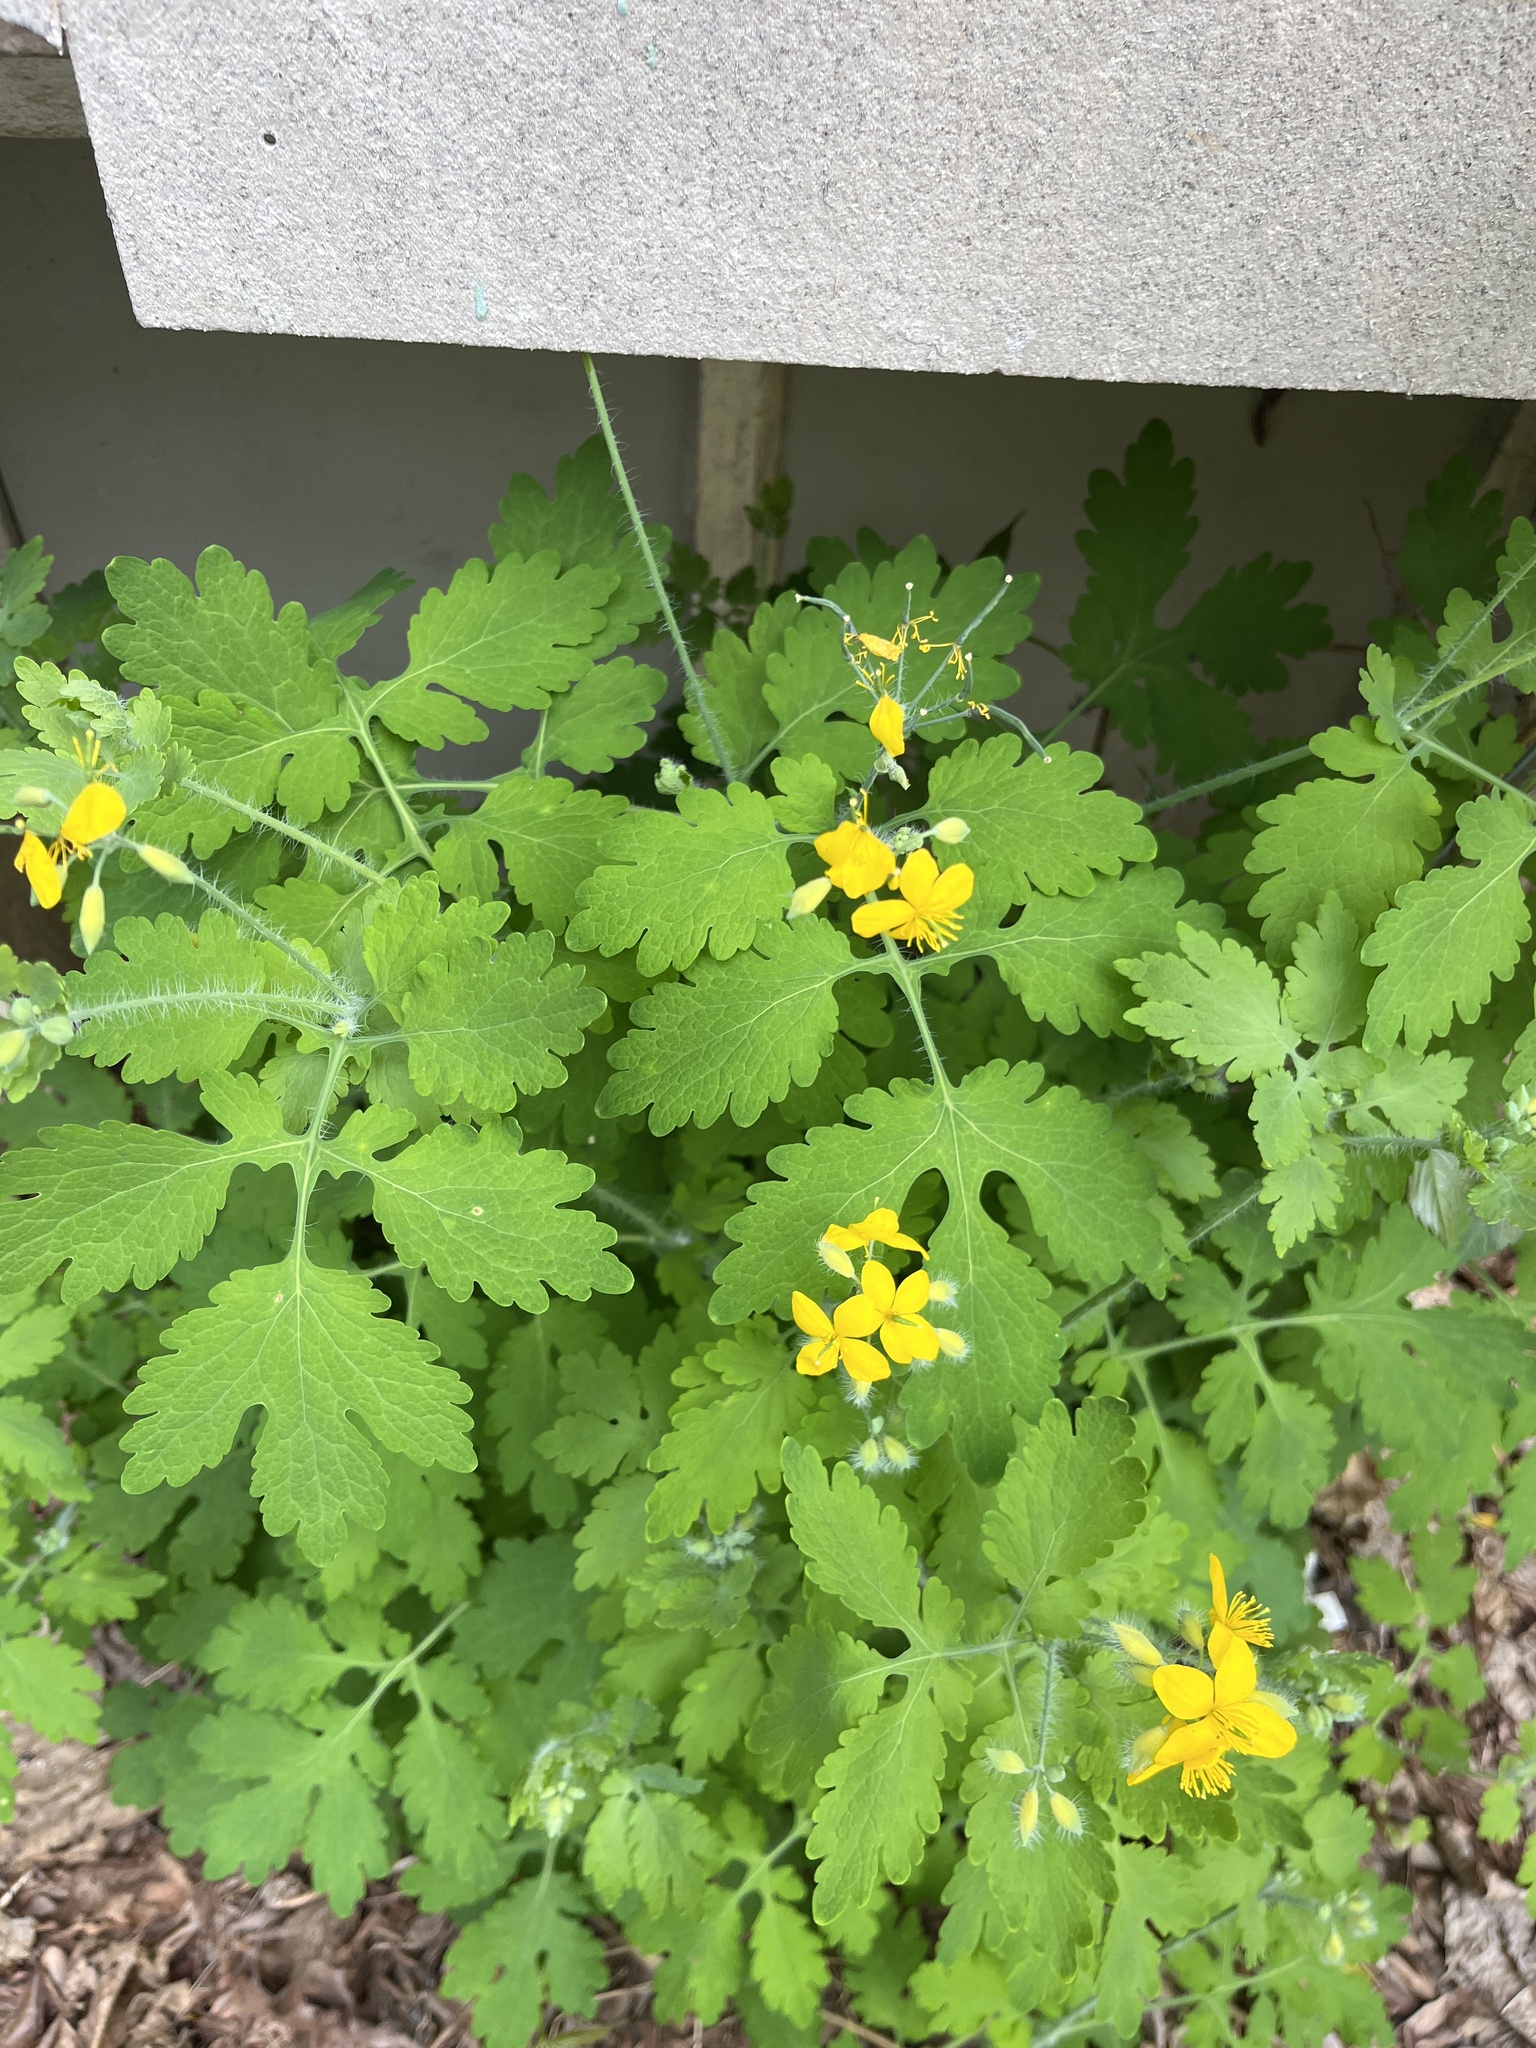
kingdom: Plantae
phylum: Tracheophyta
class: Magnoliopsida
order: Ranunculales
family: Papaveraceae
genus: Chelidonium
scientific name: Chelidonium majus
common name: Greater celandine
